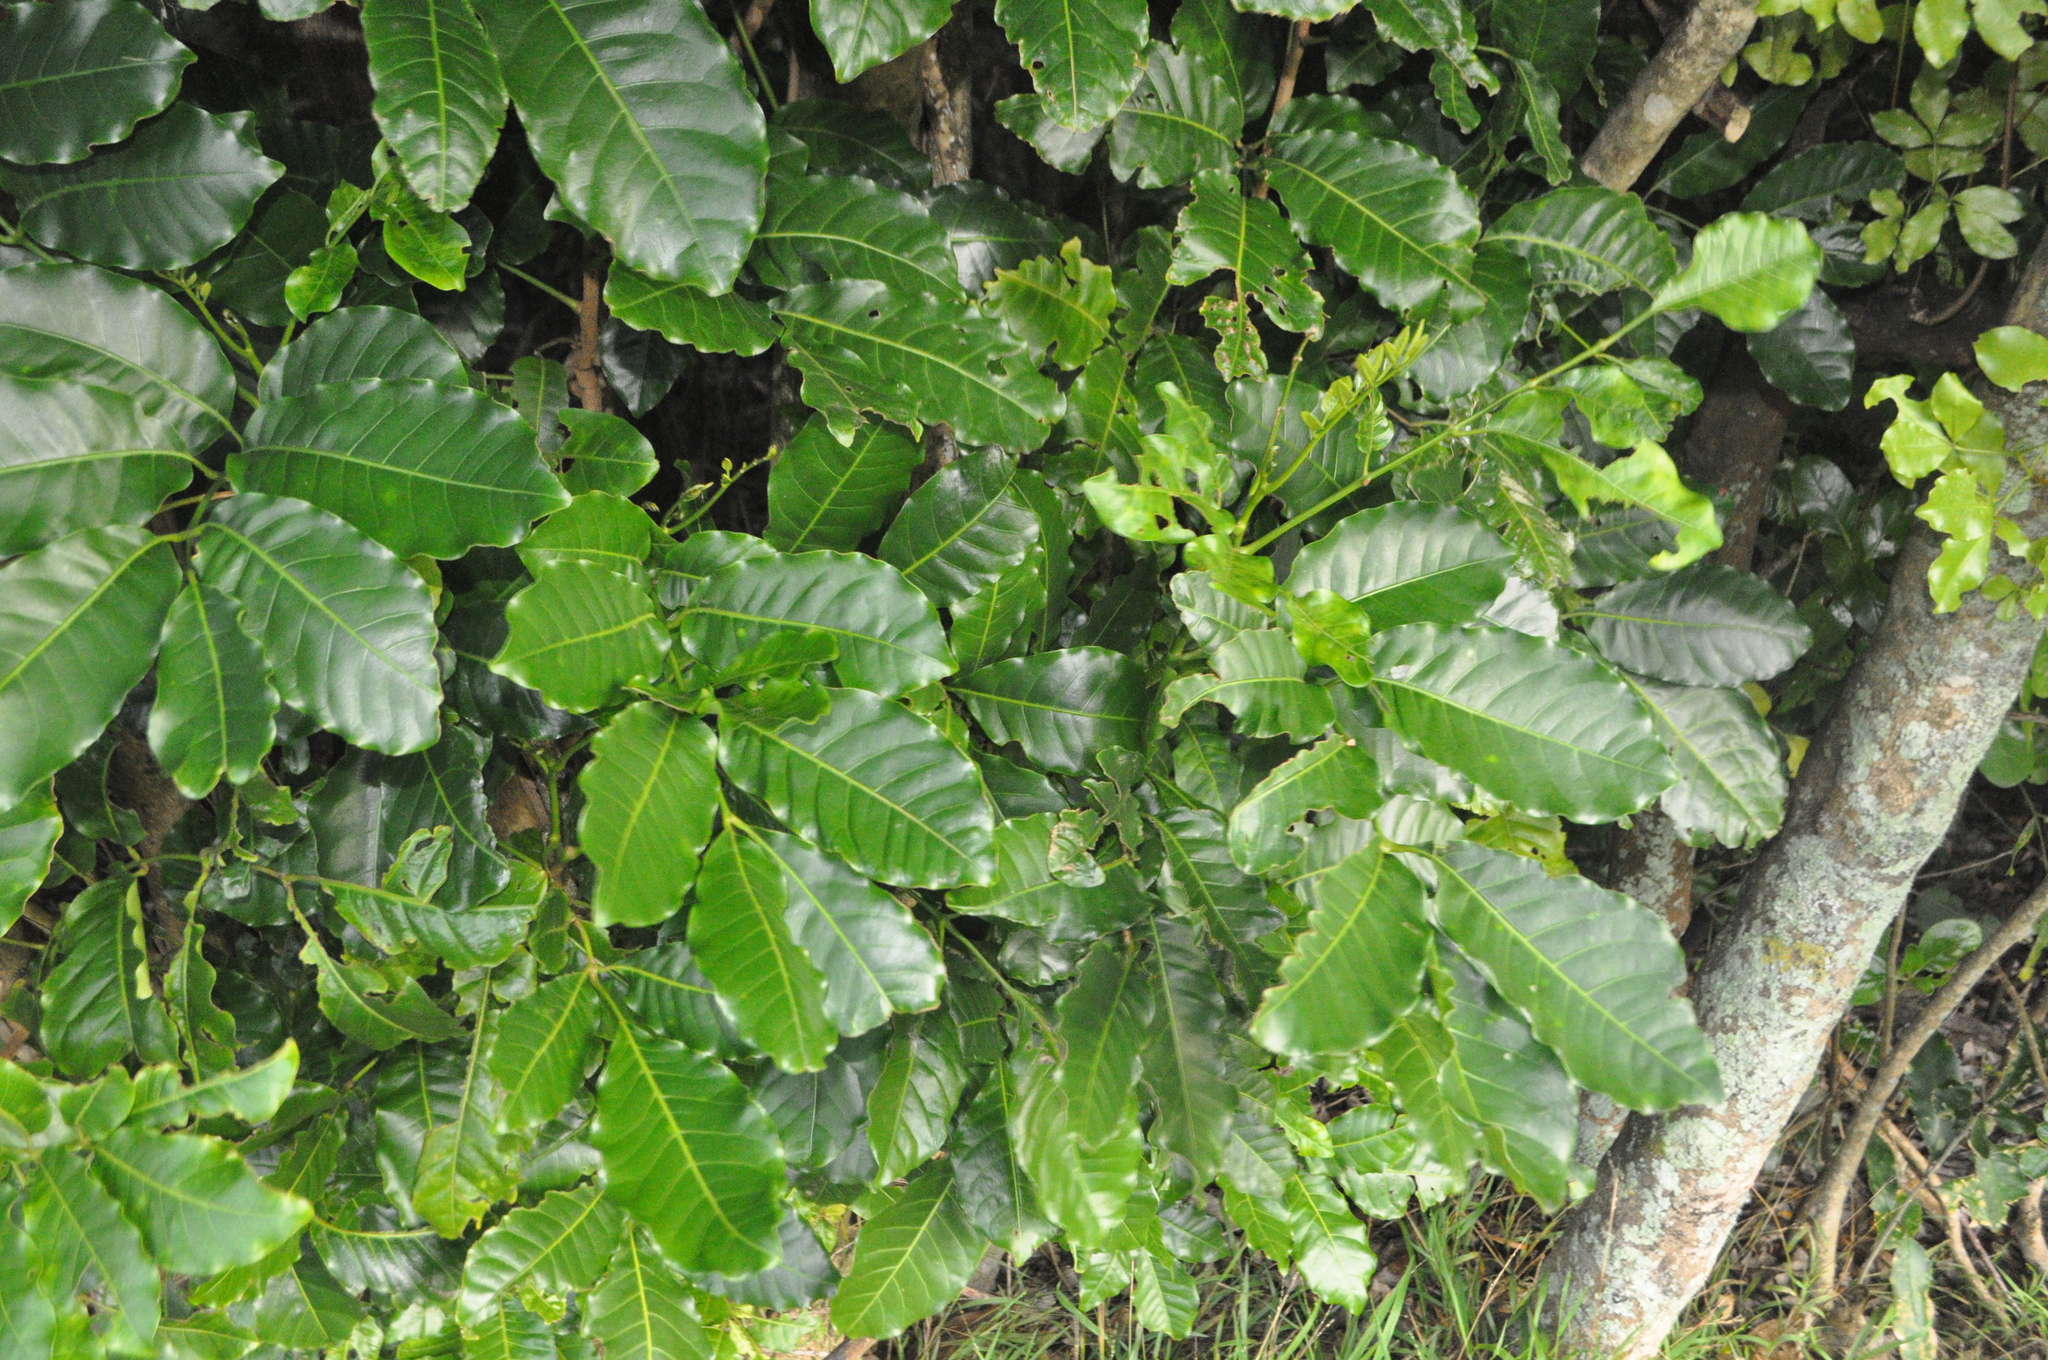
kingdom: Plantae
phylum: Tracheophyta
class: Magnoliopsida
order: Sapindales
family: Meliaceae
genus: Didymocheton
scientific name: Didymocheton spectabilis
